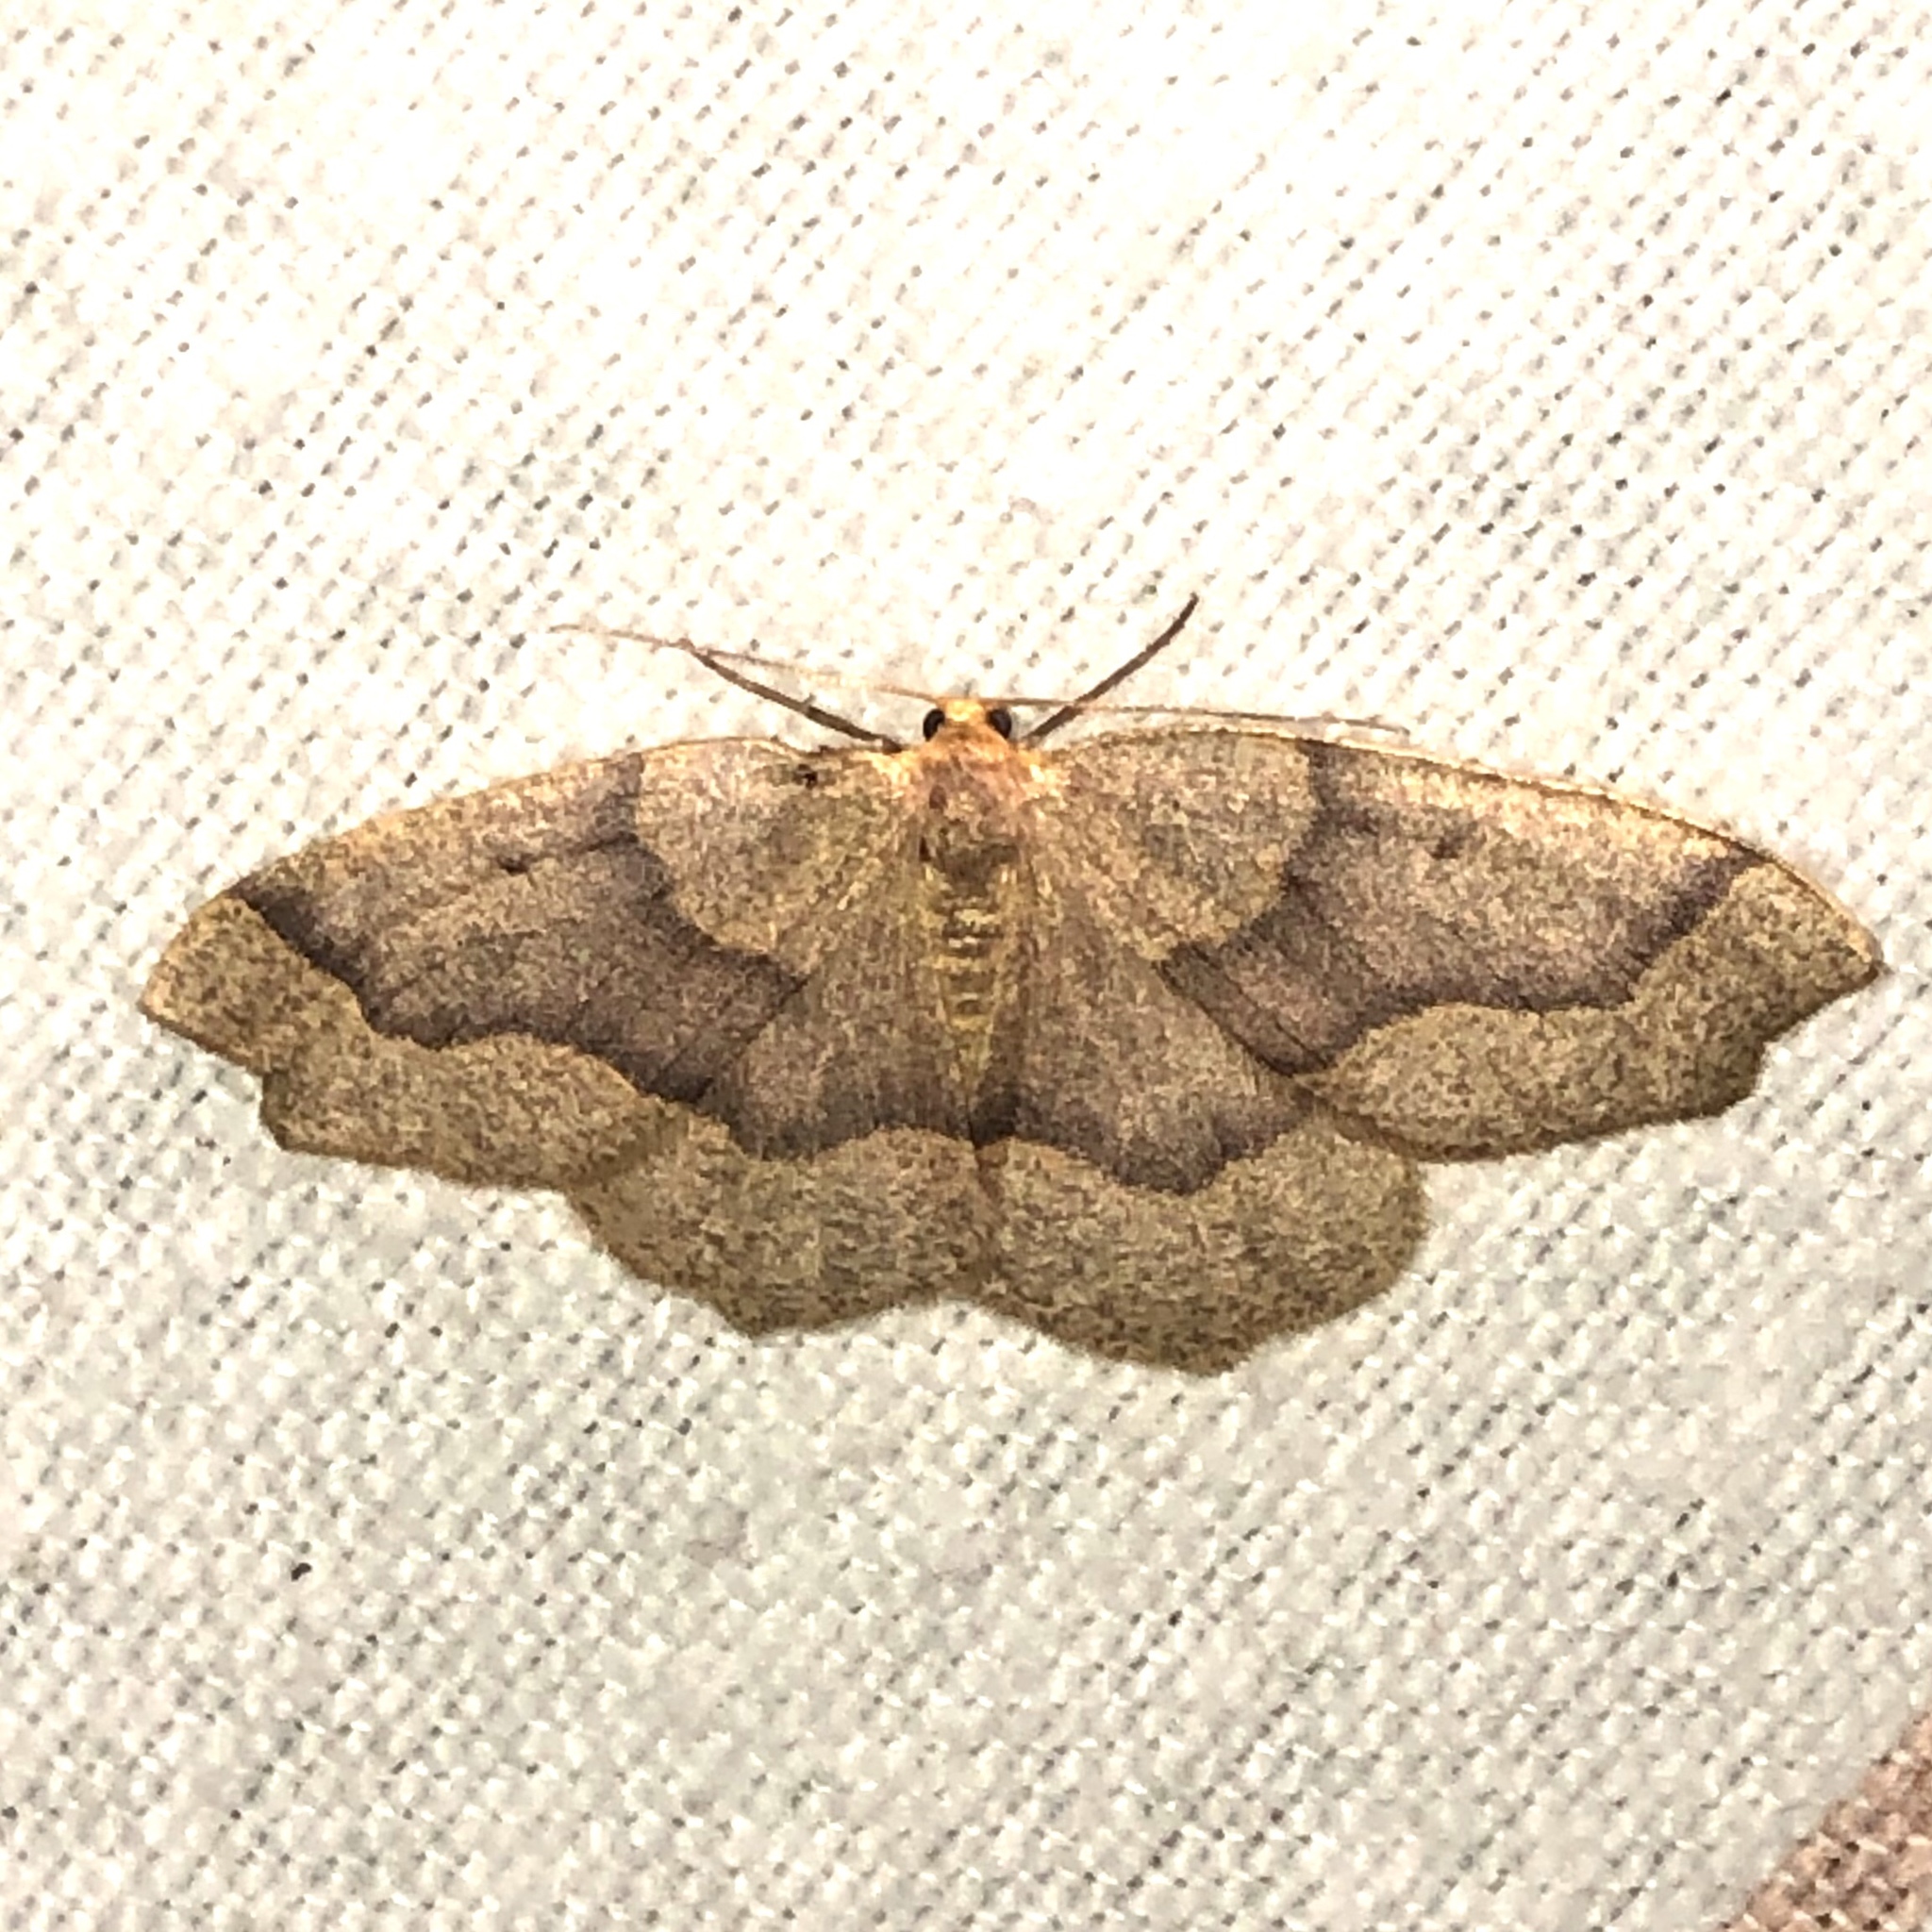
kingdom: Animalia
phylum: Arthropoda
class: Insecta
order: Lepidoptera
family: Geometridae
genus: Lambdina
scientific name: Lambdina fiscellaria
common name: Hemlock looper
